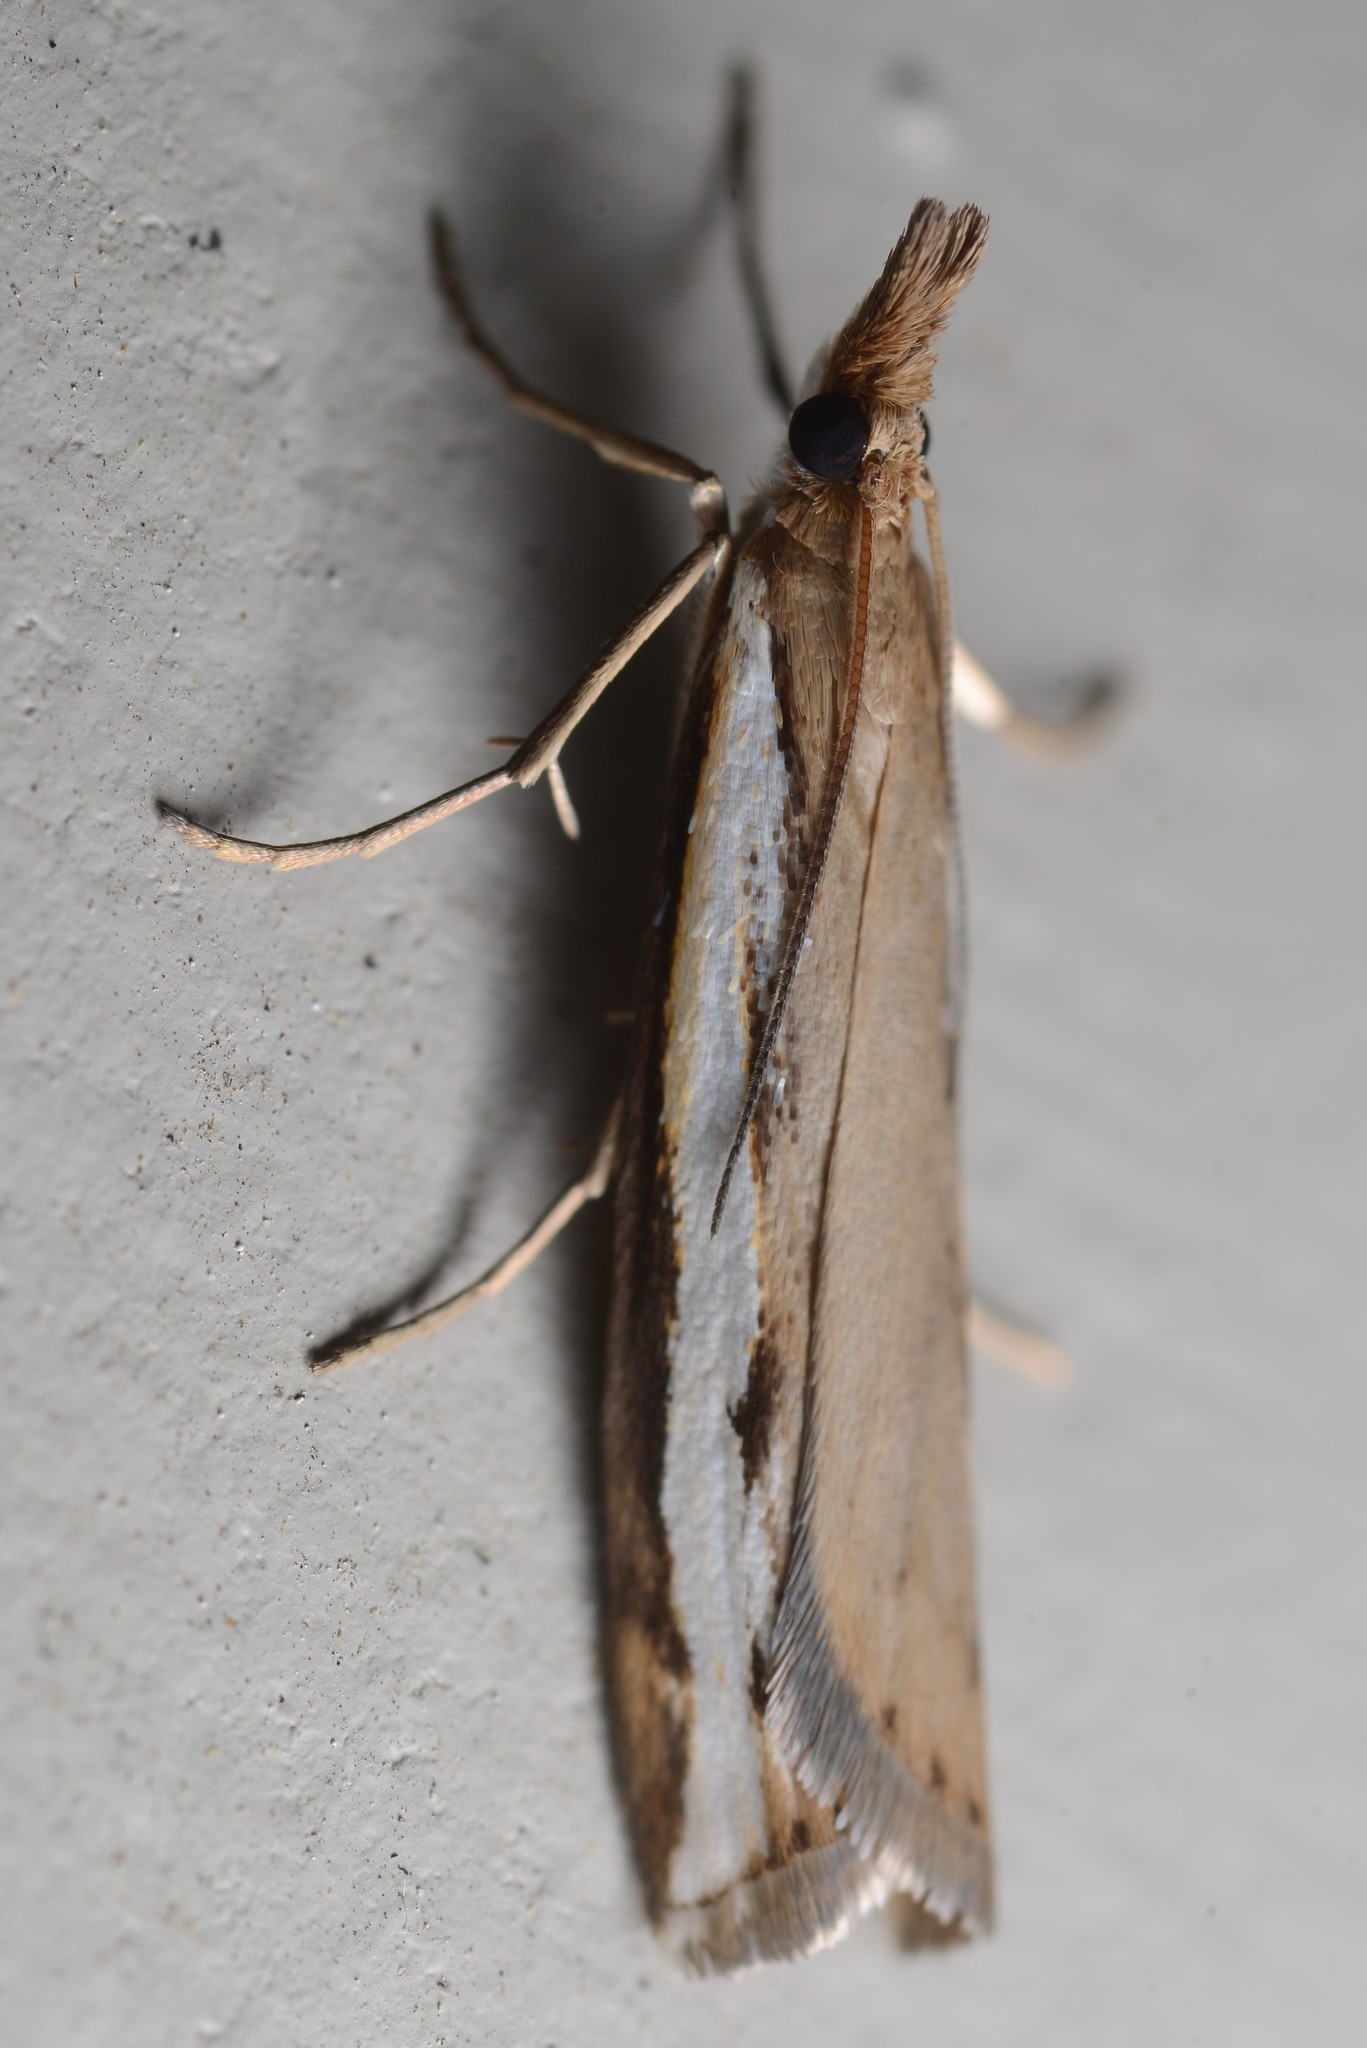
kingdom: Animalia
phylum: Arthropoda
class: Insecta
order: Lepidoptera
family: Crambidae
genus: Orocrambus
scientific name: Orocrambus flexuosellus
